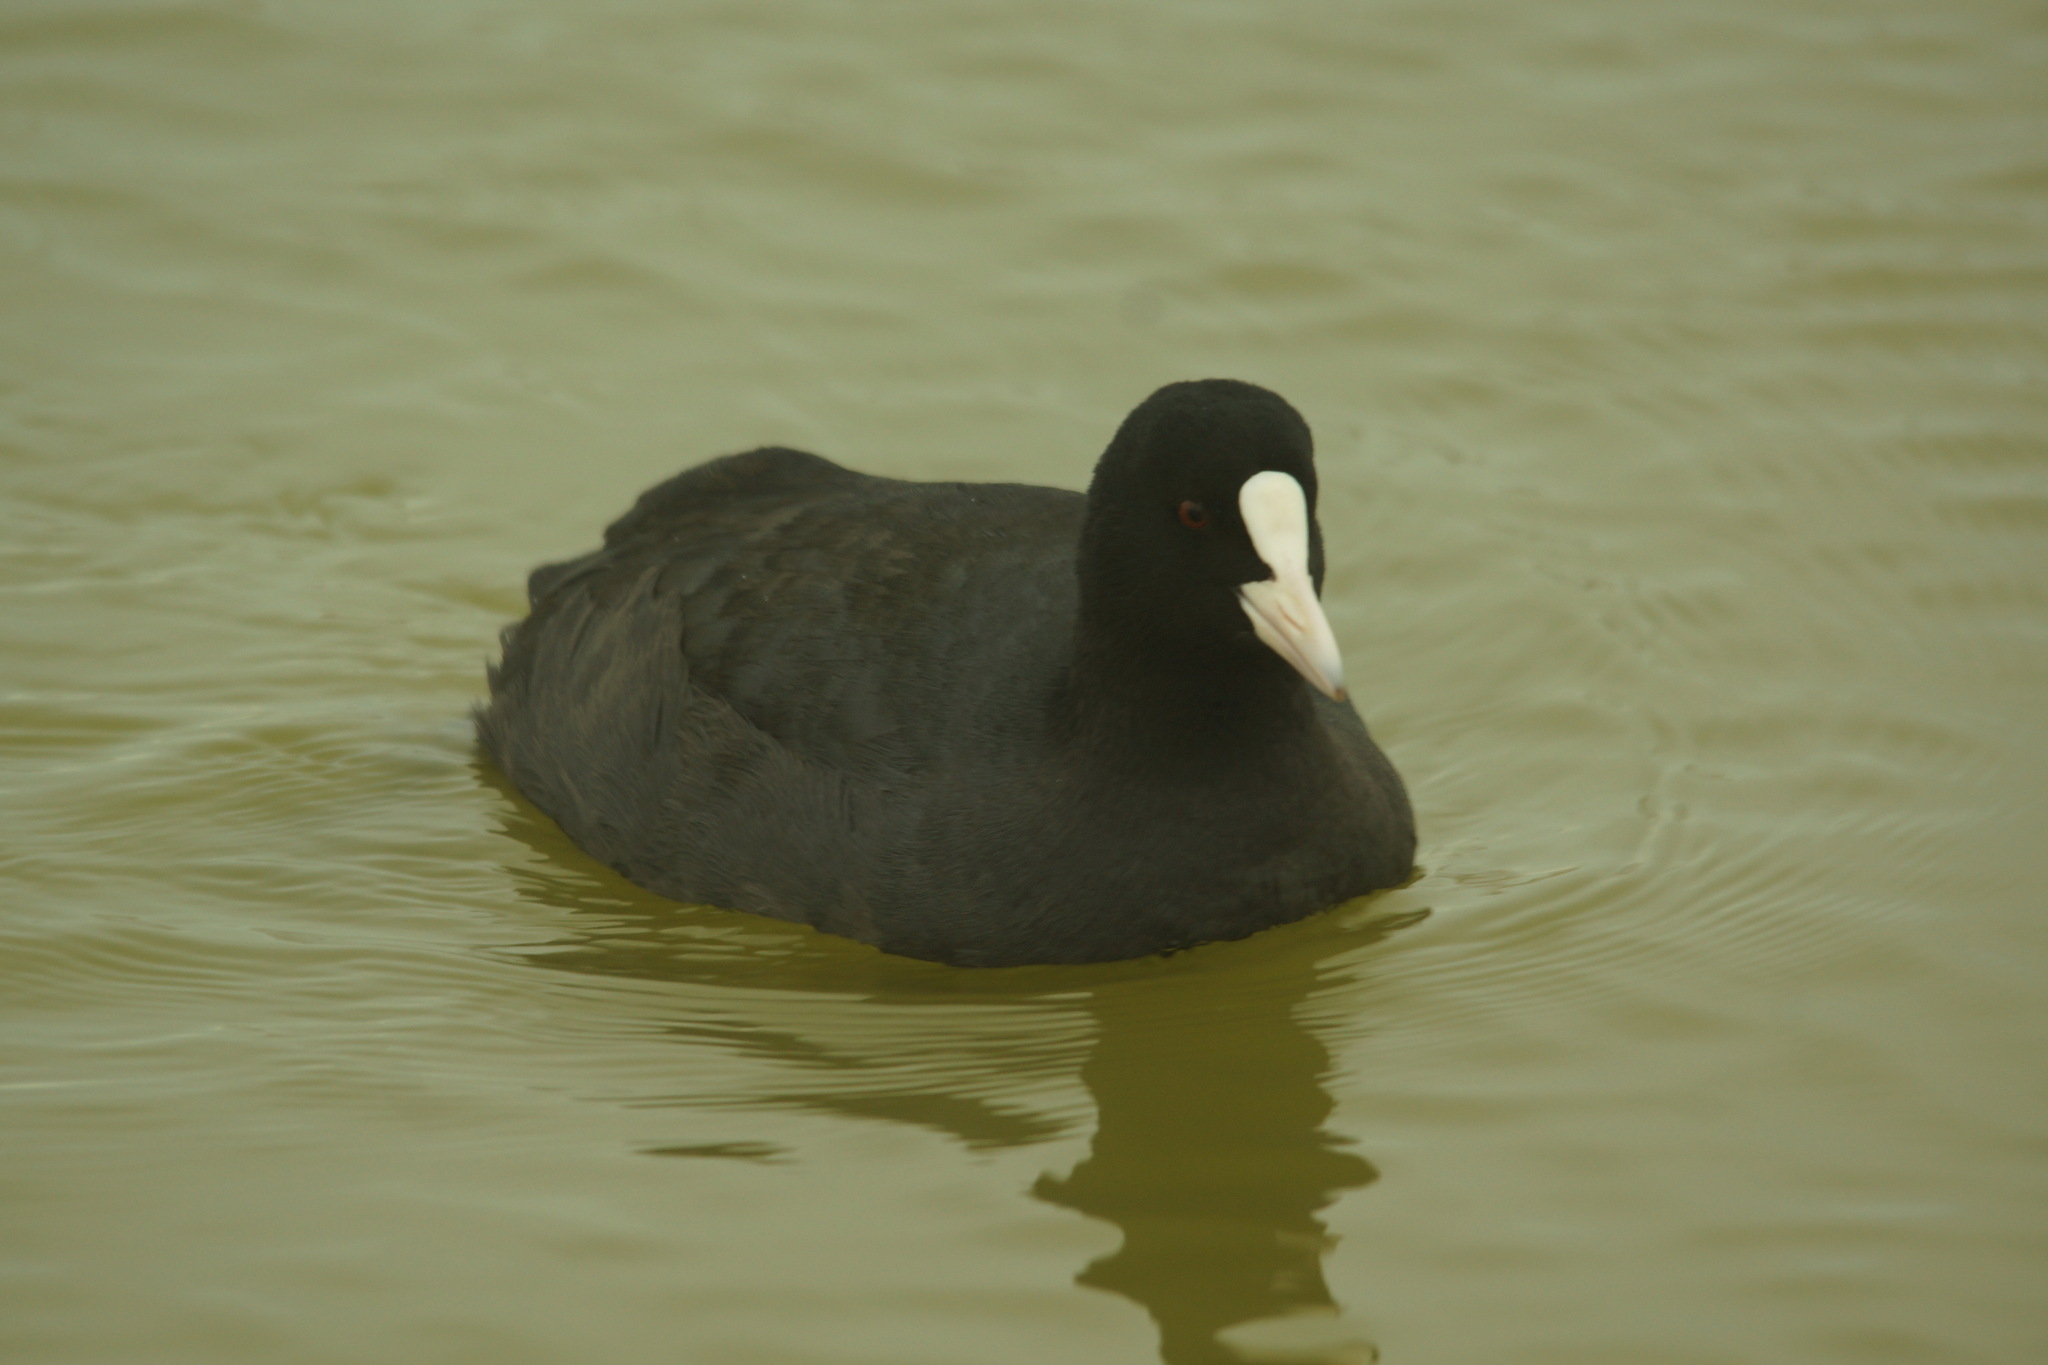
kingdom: Animalia
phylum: Chordata
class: Aves
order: Gruiformes
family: Rallidae
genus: Fulica
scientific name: Fulica atra
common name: Eurasian coot
